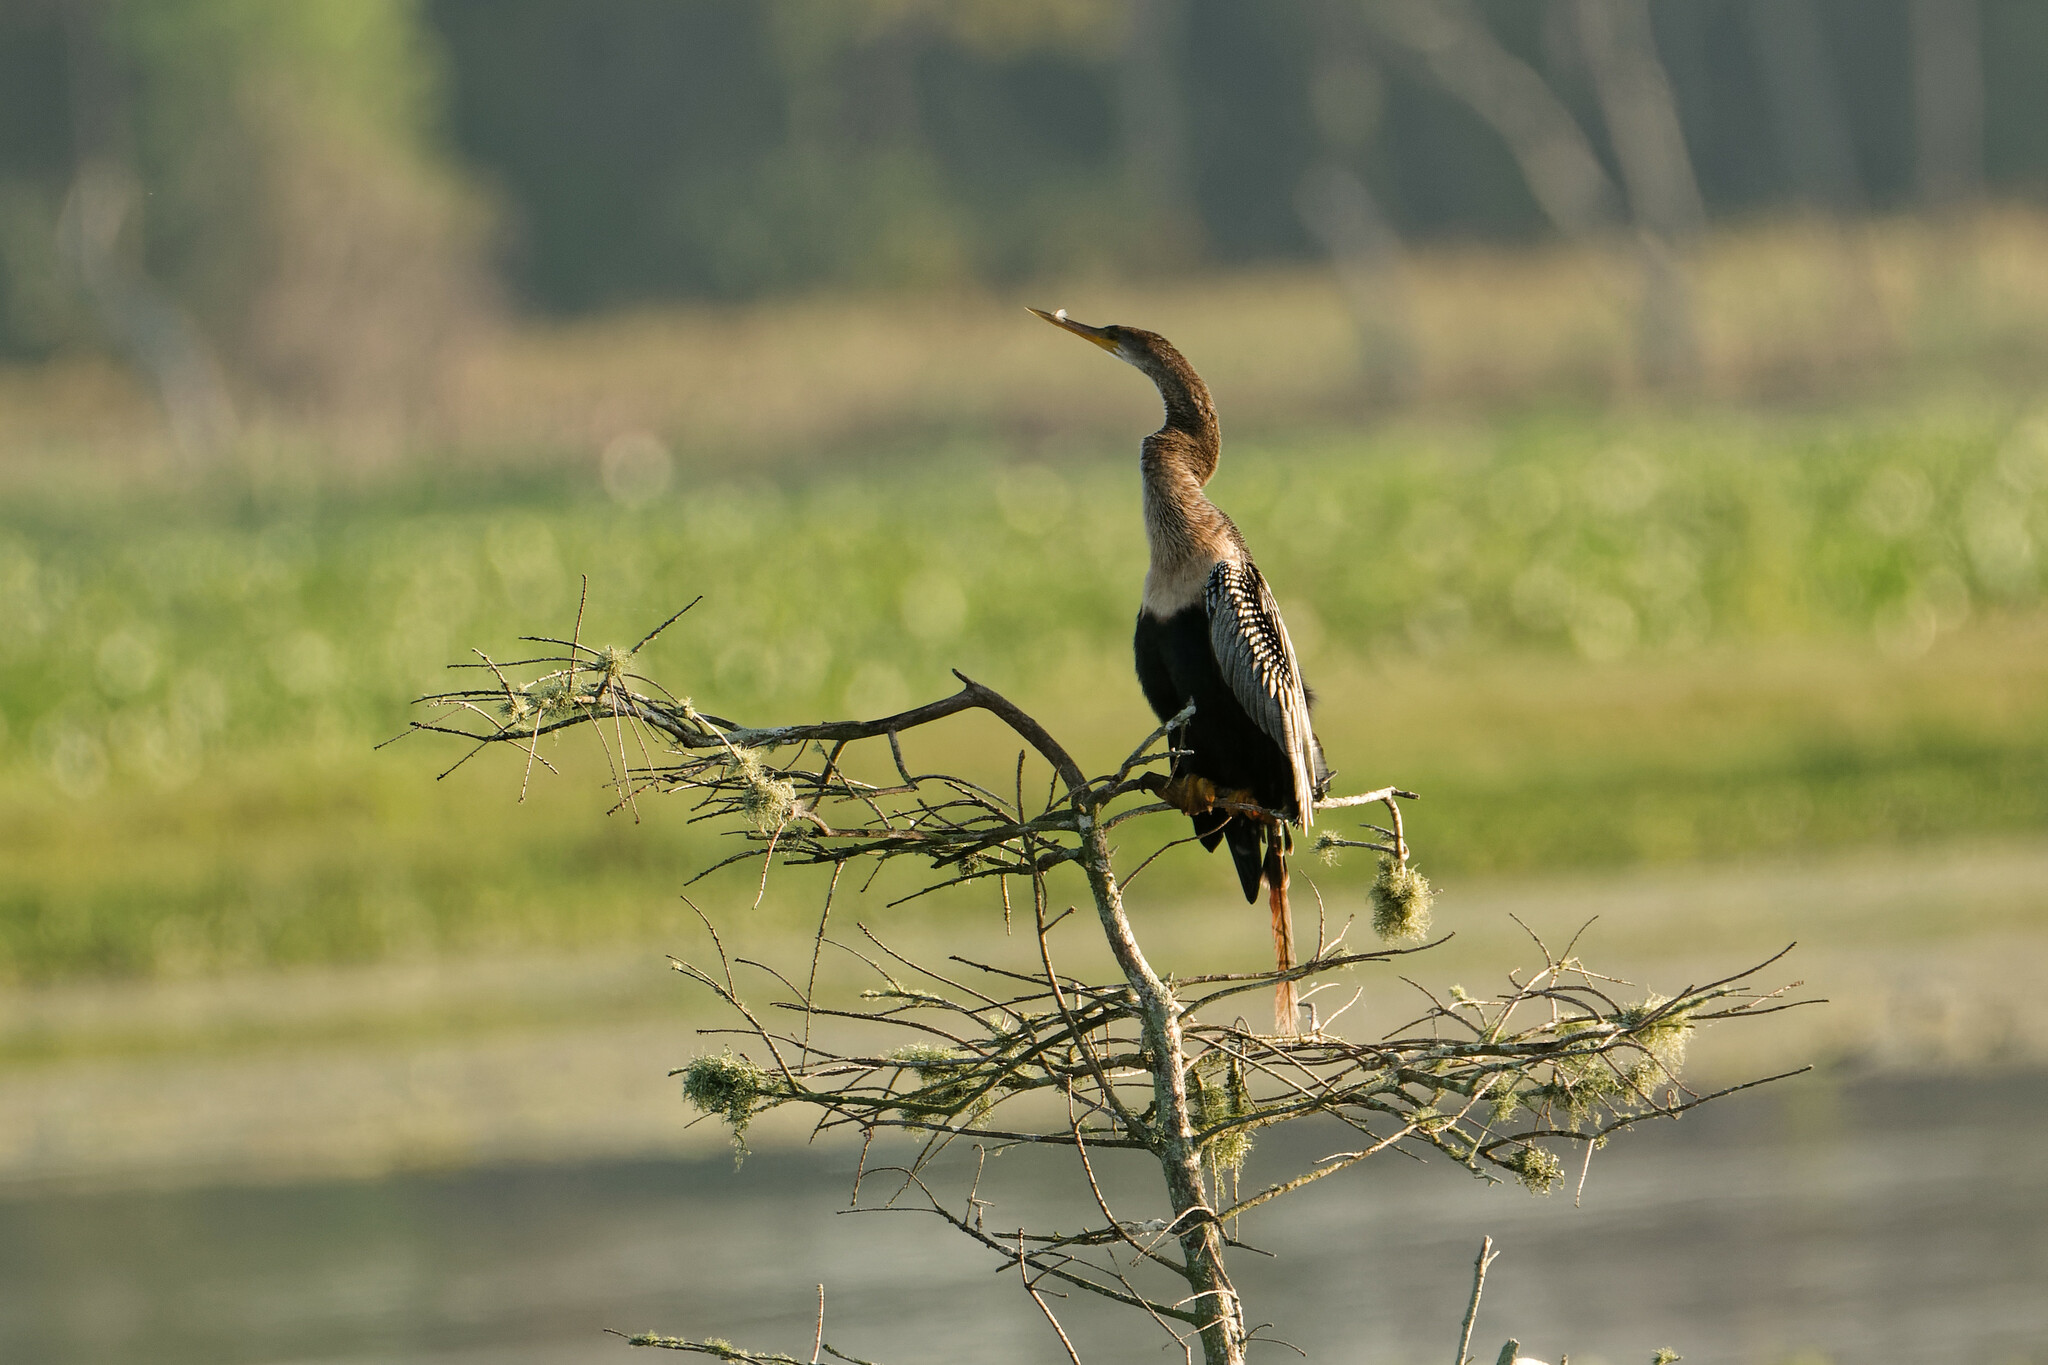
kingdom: Animalia
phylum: Chordata
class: Aves
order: Suliformes
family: Anhingidae
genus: Anhinga
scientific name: Anhinga anhinga
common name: Anhinga
